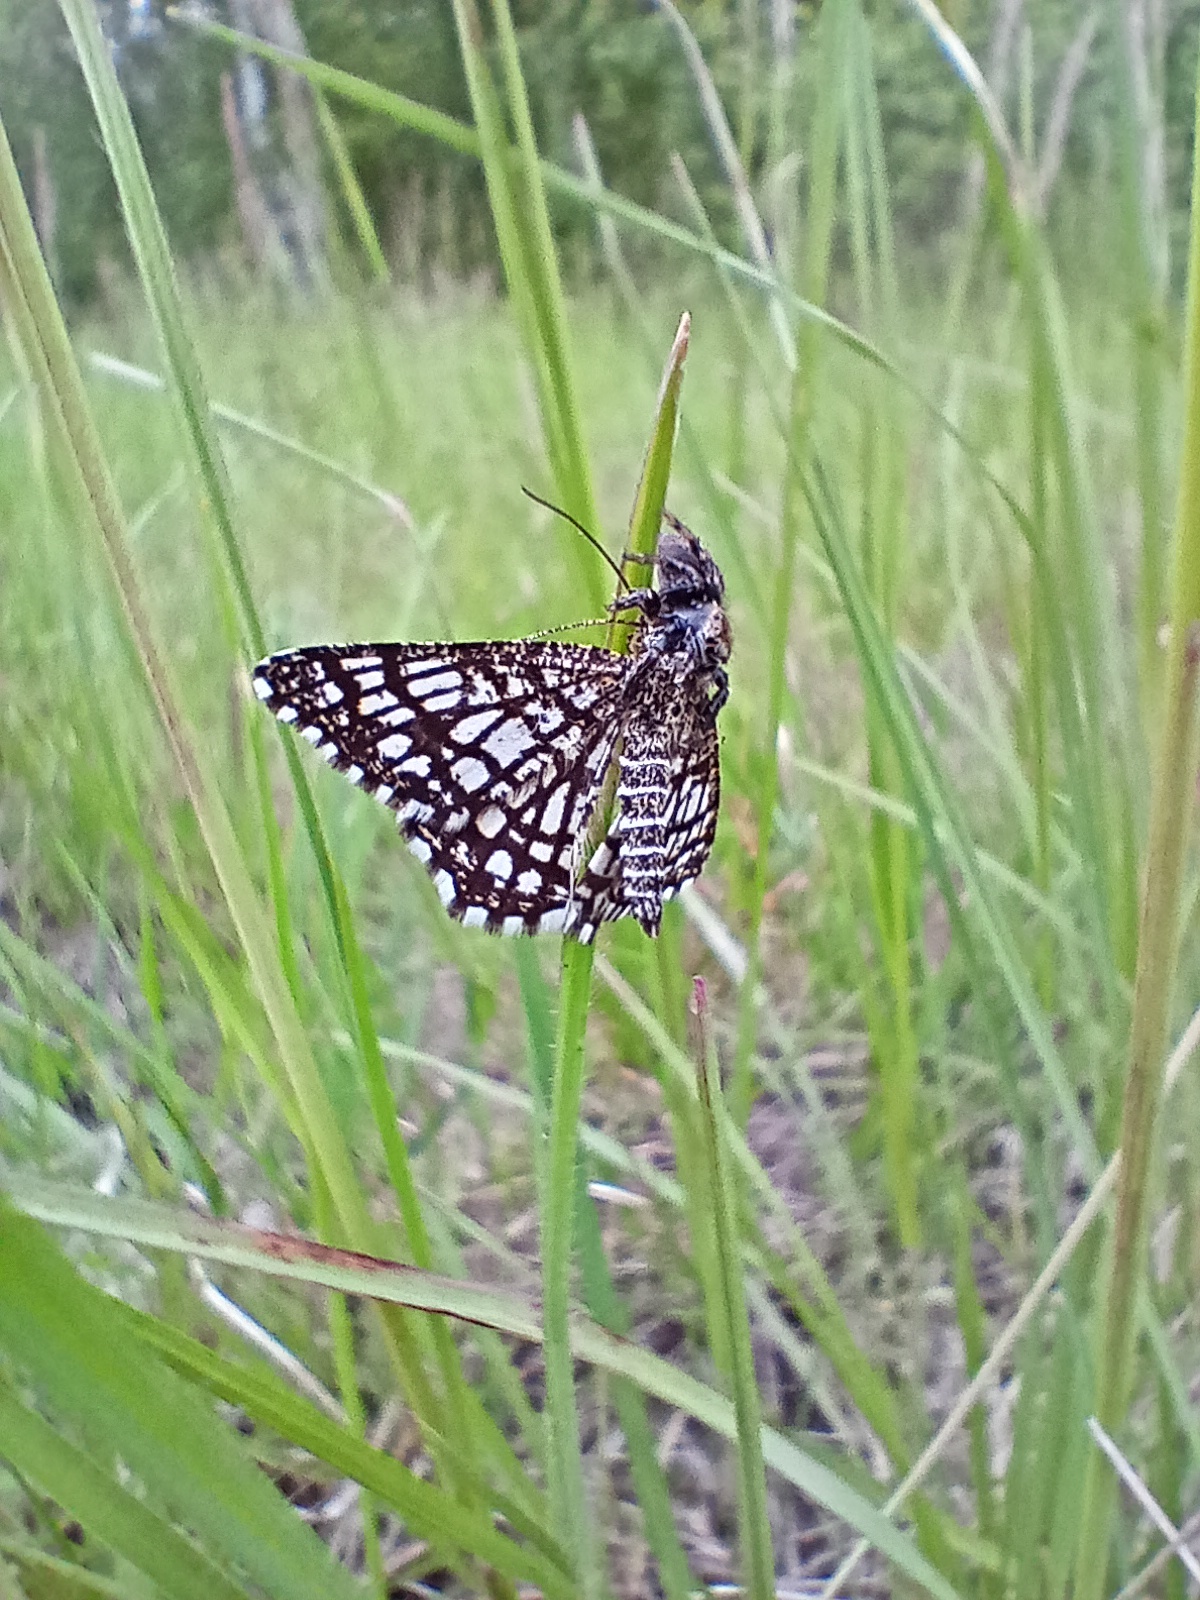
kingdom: Animalia
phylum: Arthropoda
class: Insecta
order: Lepidoptera
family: Geometridae
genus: Chiasmia
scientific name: Chiasmia clathrata
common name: Latticed heath
